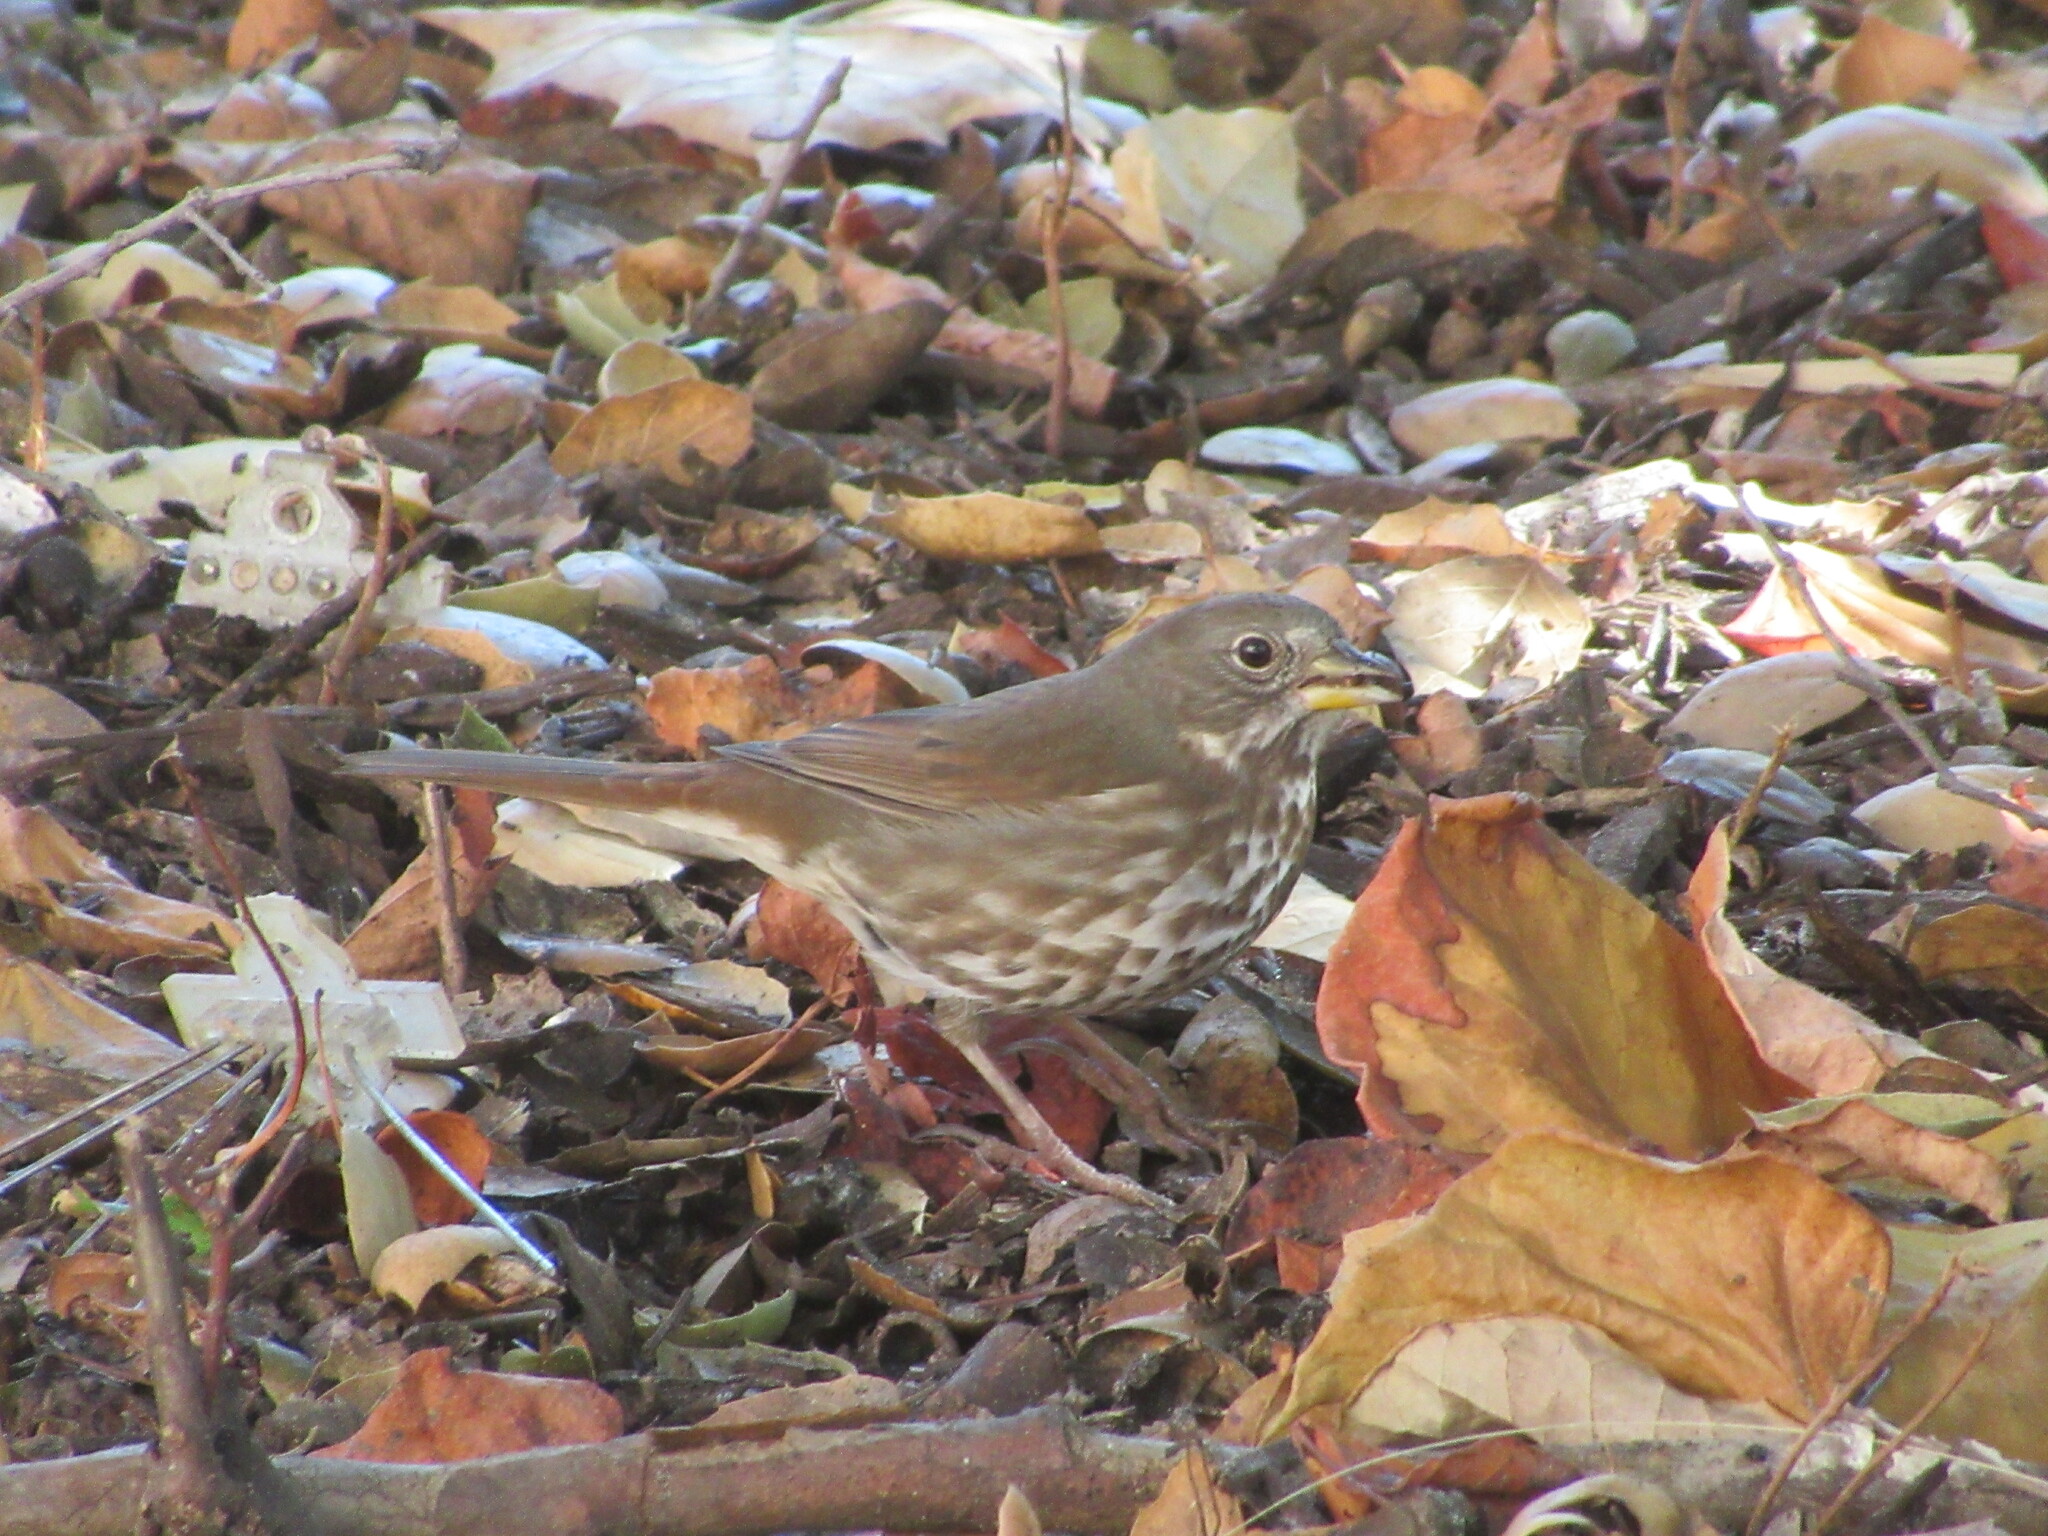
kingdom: Animalia
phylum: Chordata
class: Aves
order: Passeriformes
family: Passerellidae
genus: Passerella
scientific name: Passerella iliaca
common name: Fox sparrow
